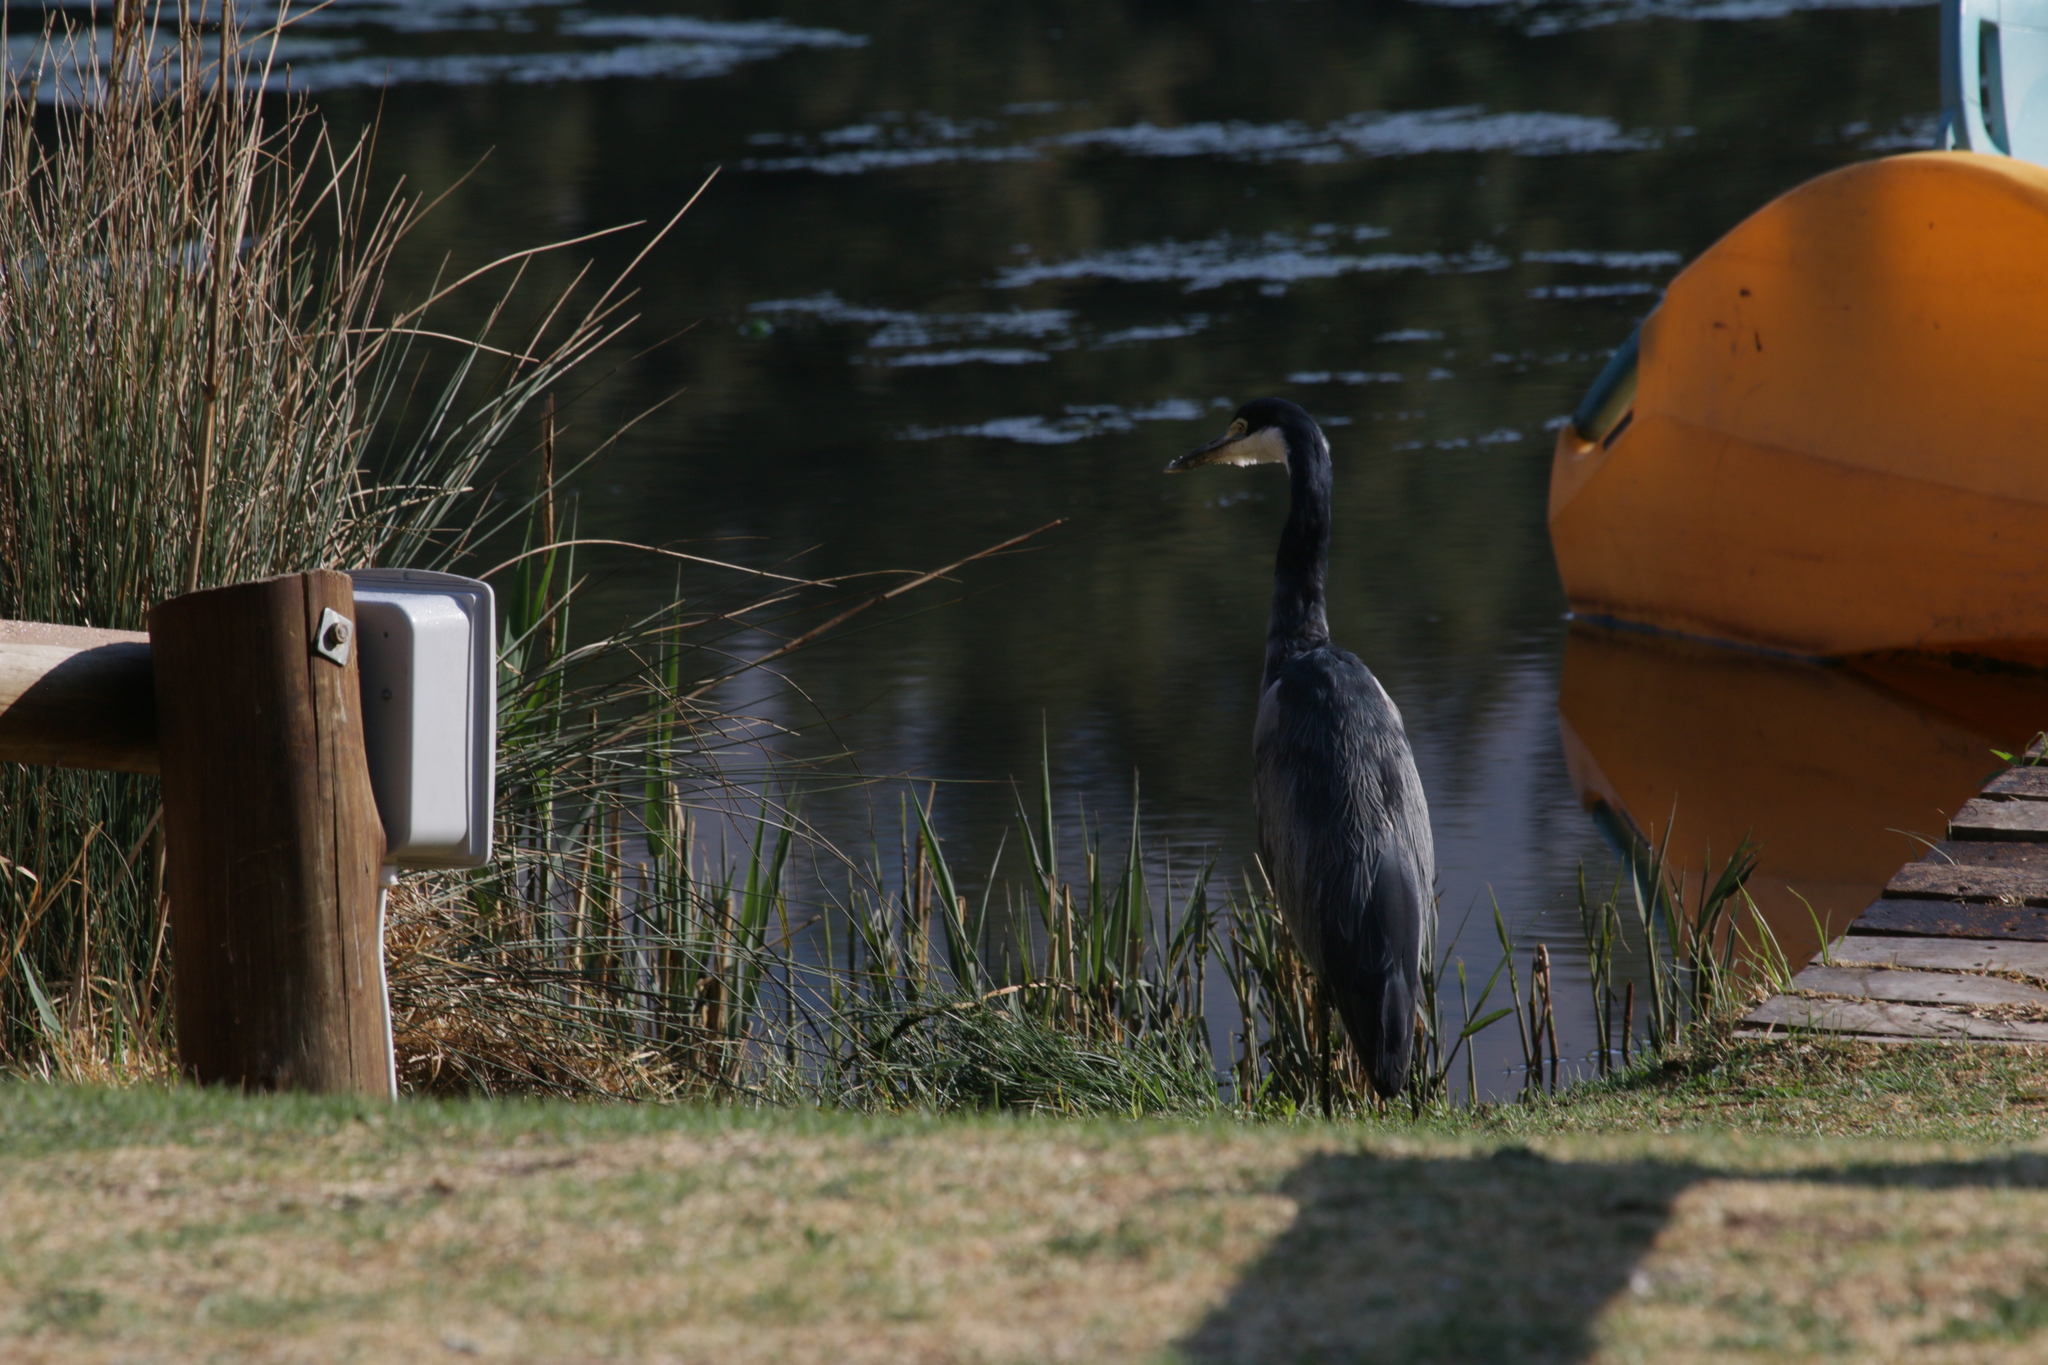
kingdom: Animalia
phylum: Chordata
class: Aves
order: Pelecaniformes
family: Ardeidae
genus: Ardea
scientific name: Ardea melanocephala
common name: Black-headed heron
